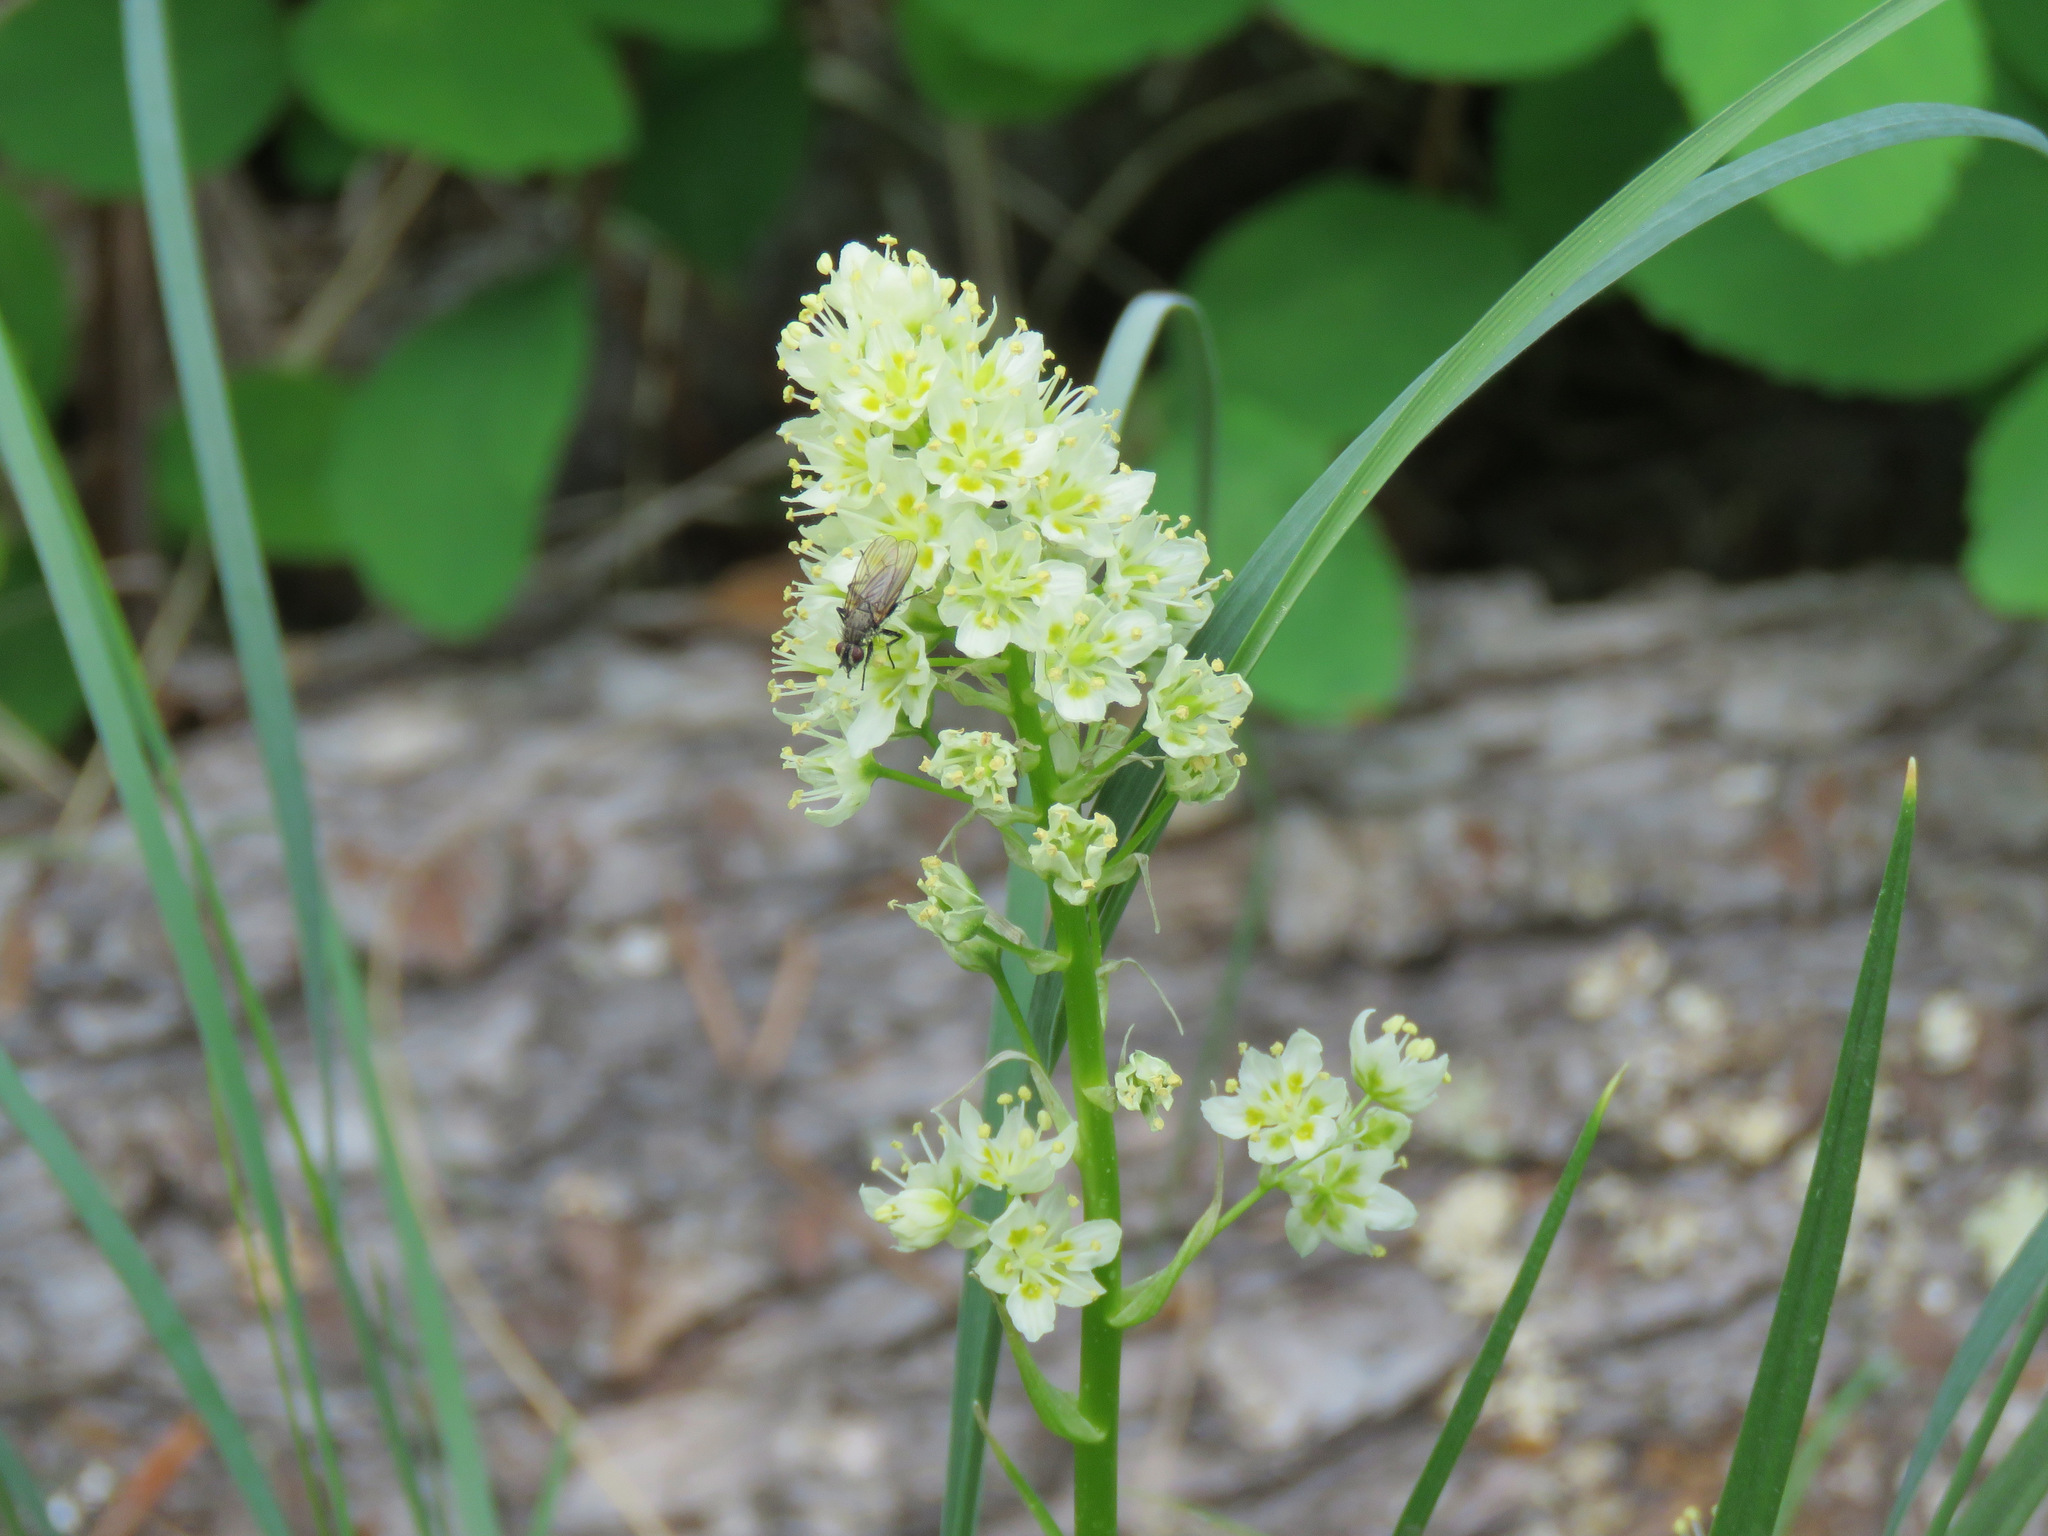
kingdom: Plantae
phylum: Tracheophyta
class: Liliopsida
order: Liliales
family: Melanthiaceae
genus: Toxicoscordion
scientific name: Toxicoscordion venenosum
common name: Meadow death camas
